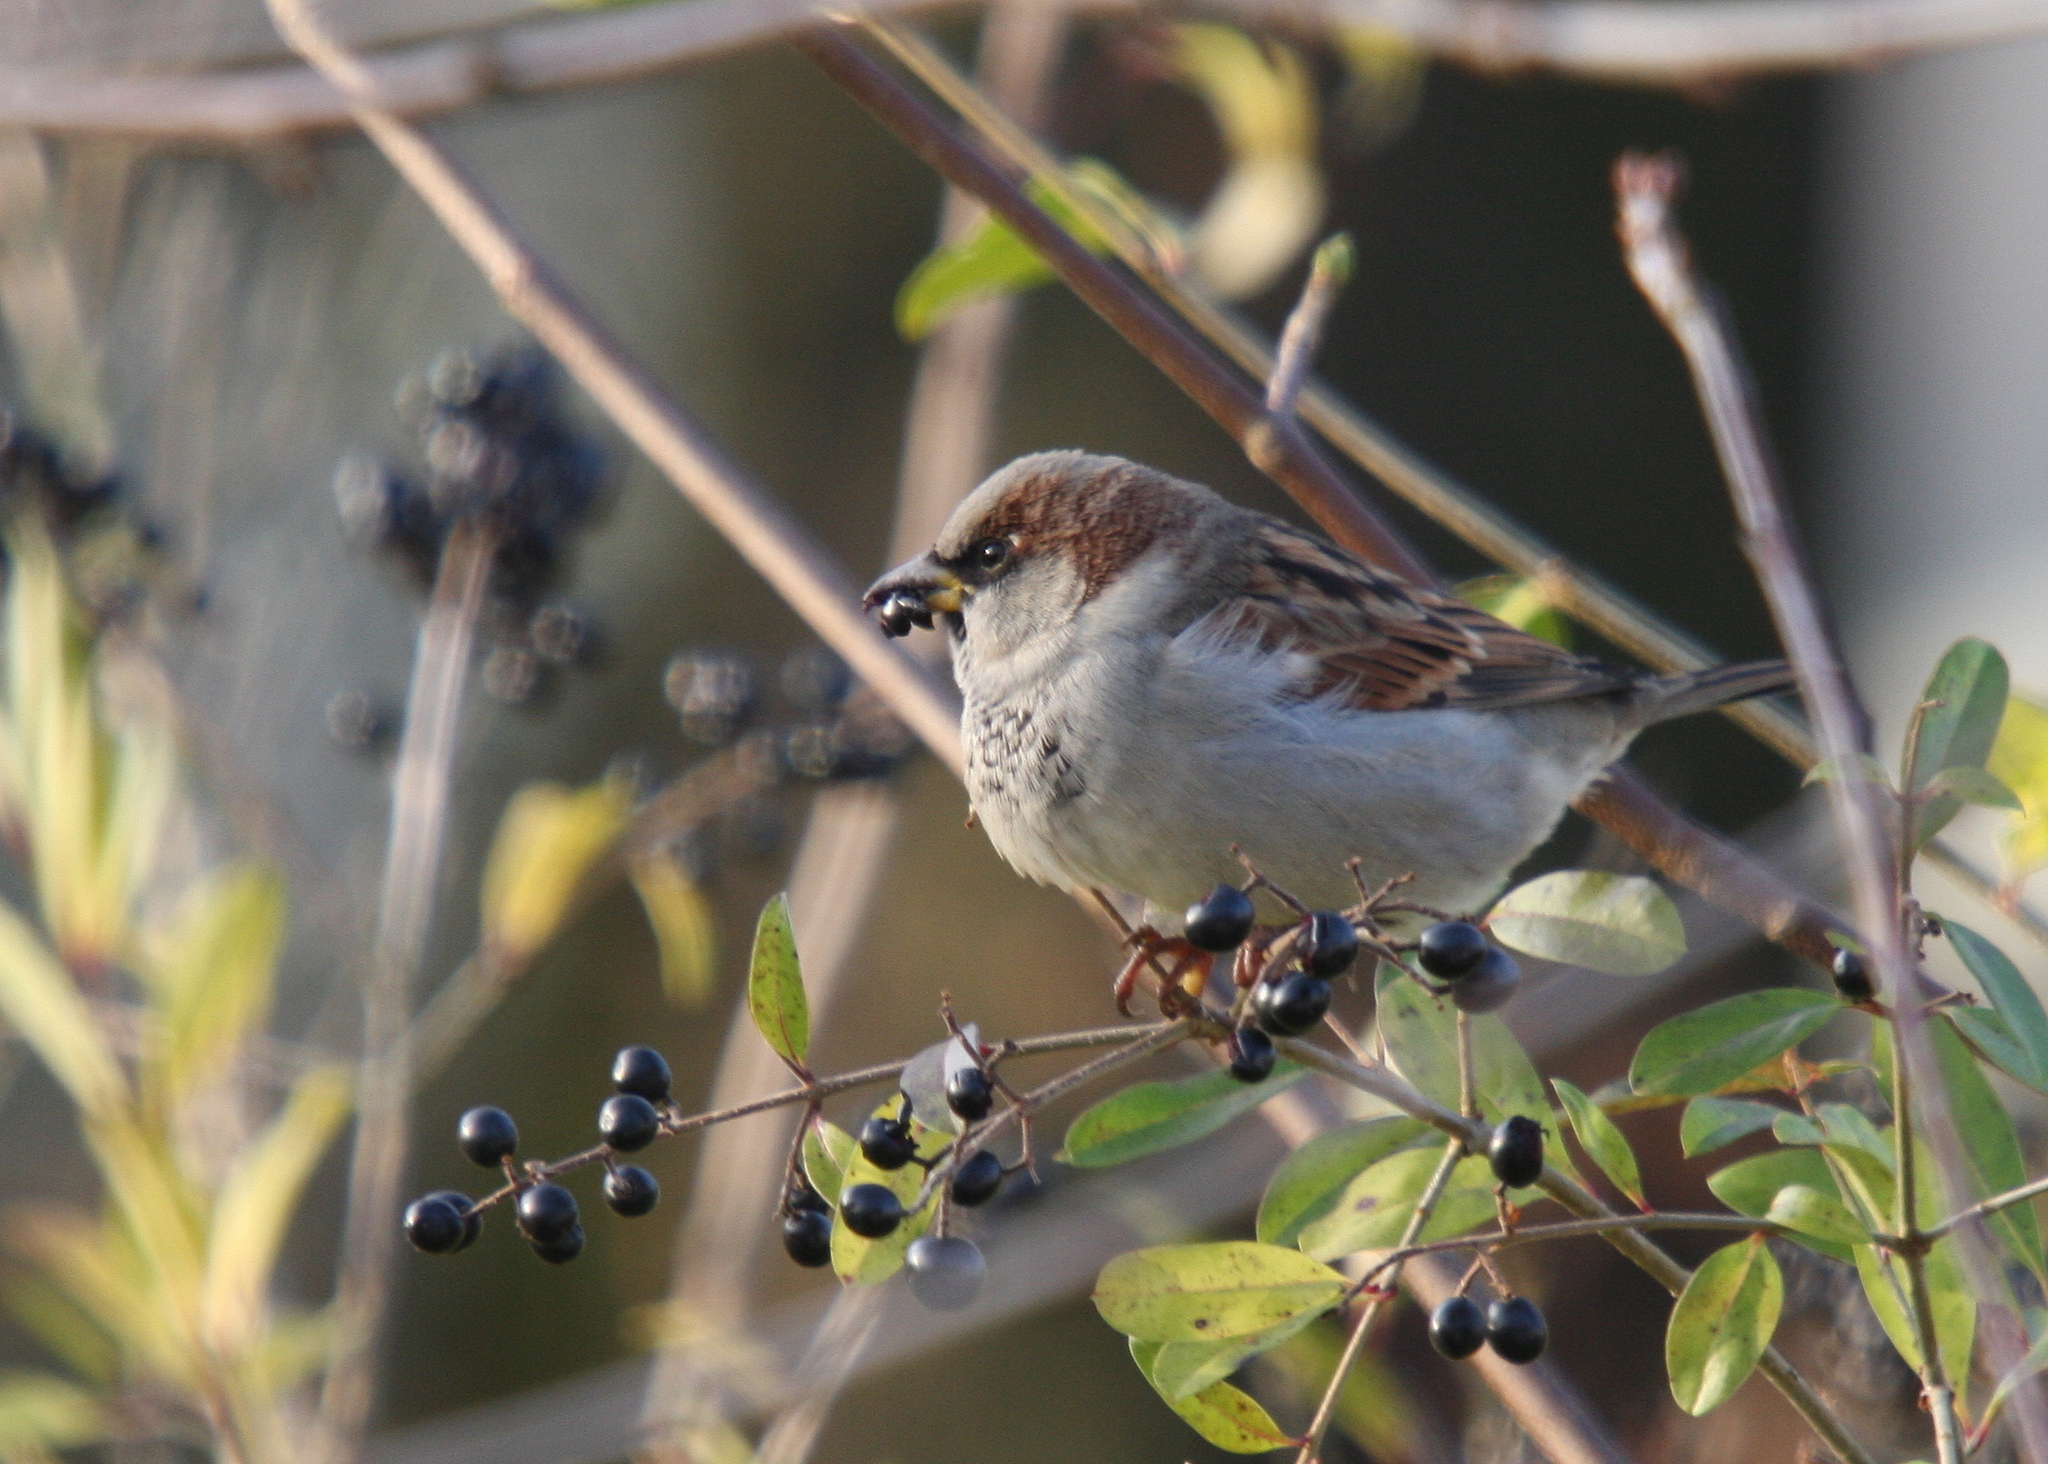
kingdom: Animalia
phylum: Chordata
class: Aves
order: Passeriformes
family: Passeridae
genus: Passer
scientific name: Passer domesticus
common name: House sparrow
